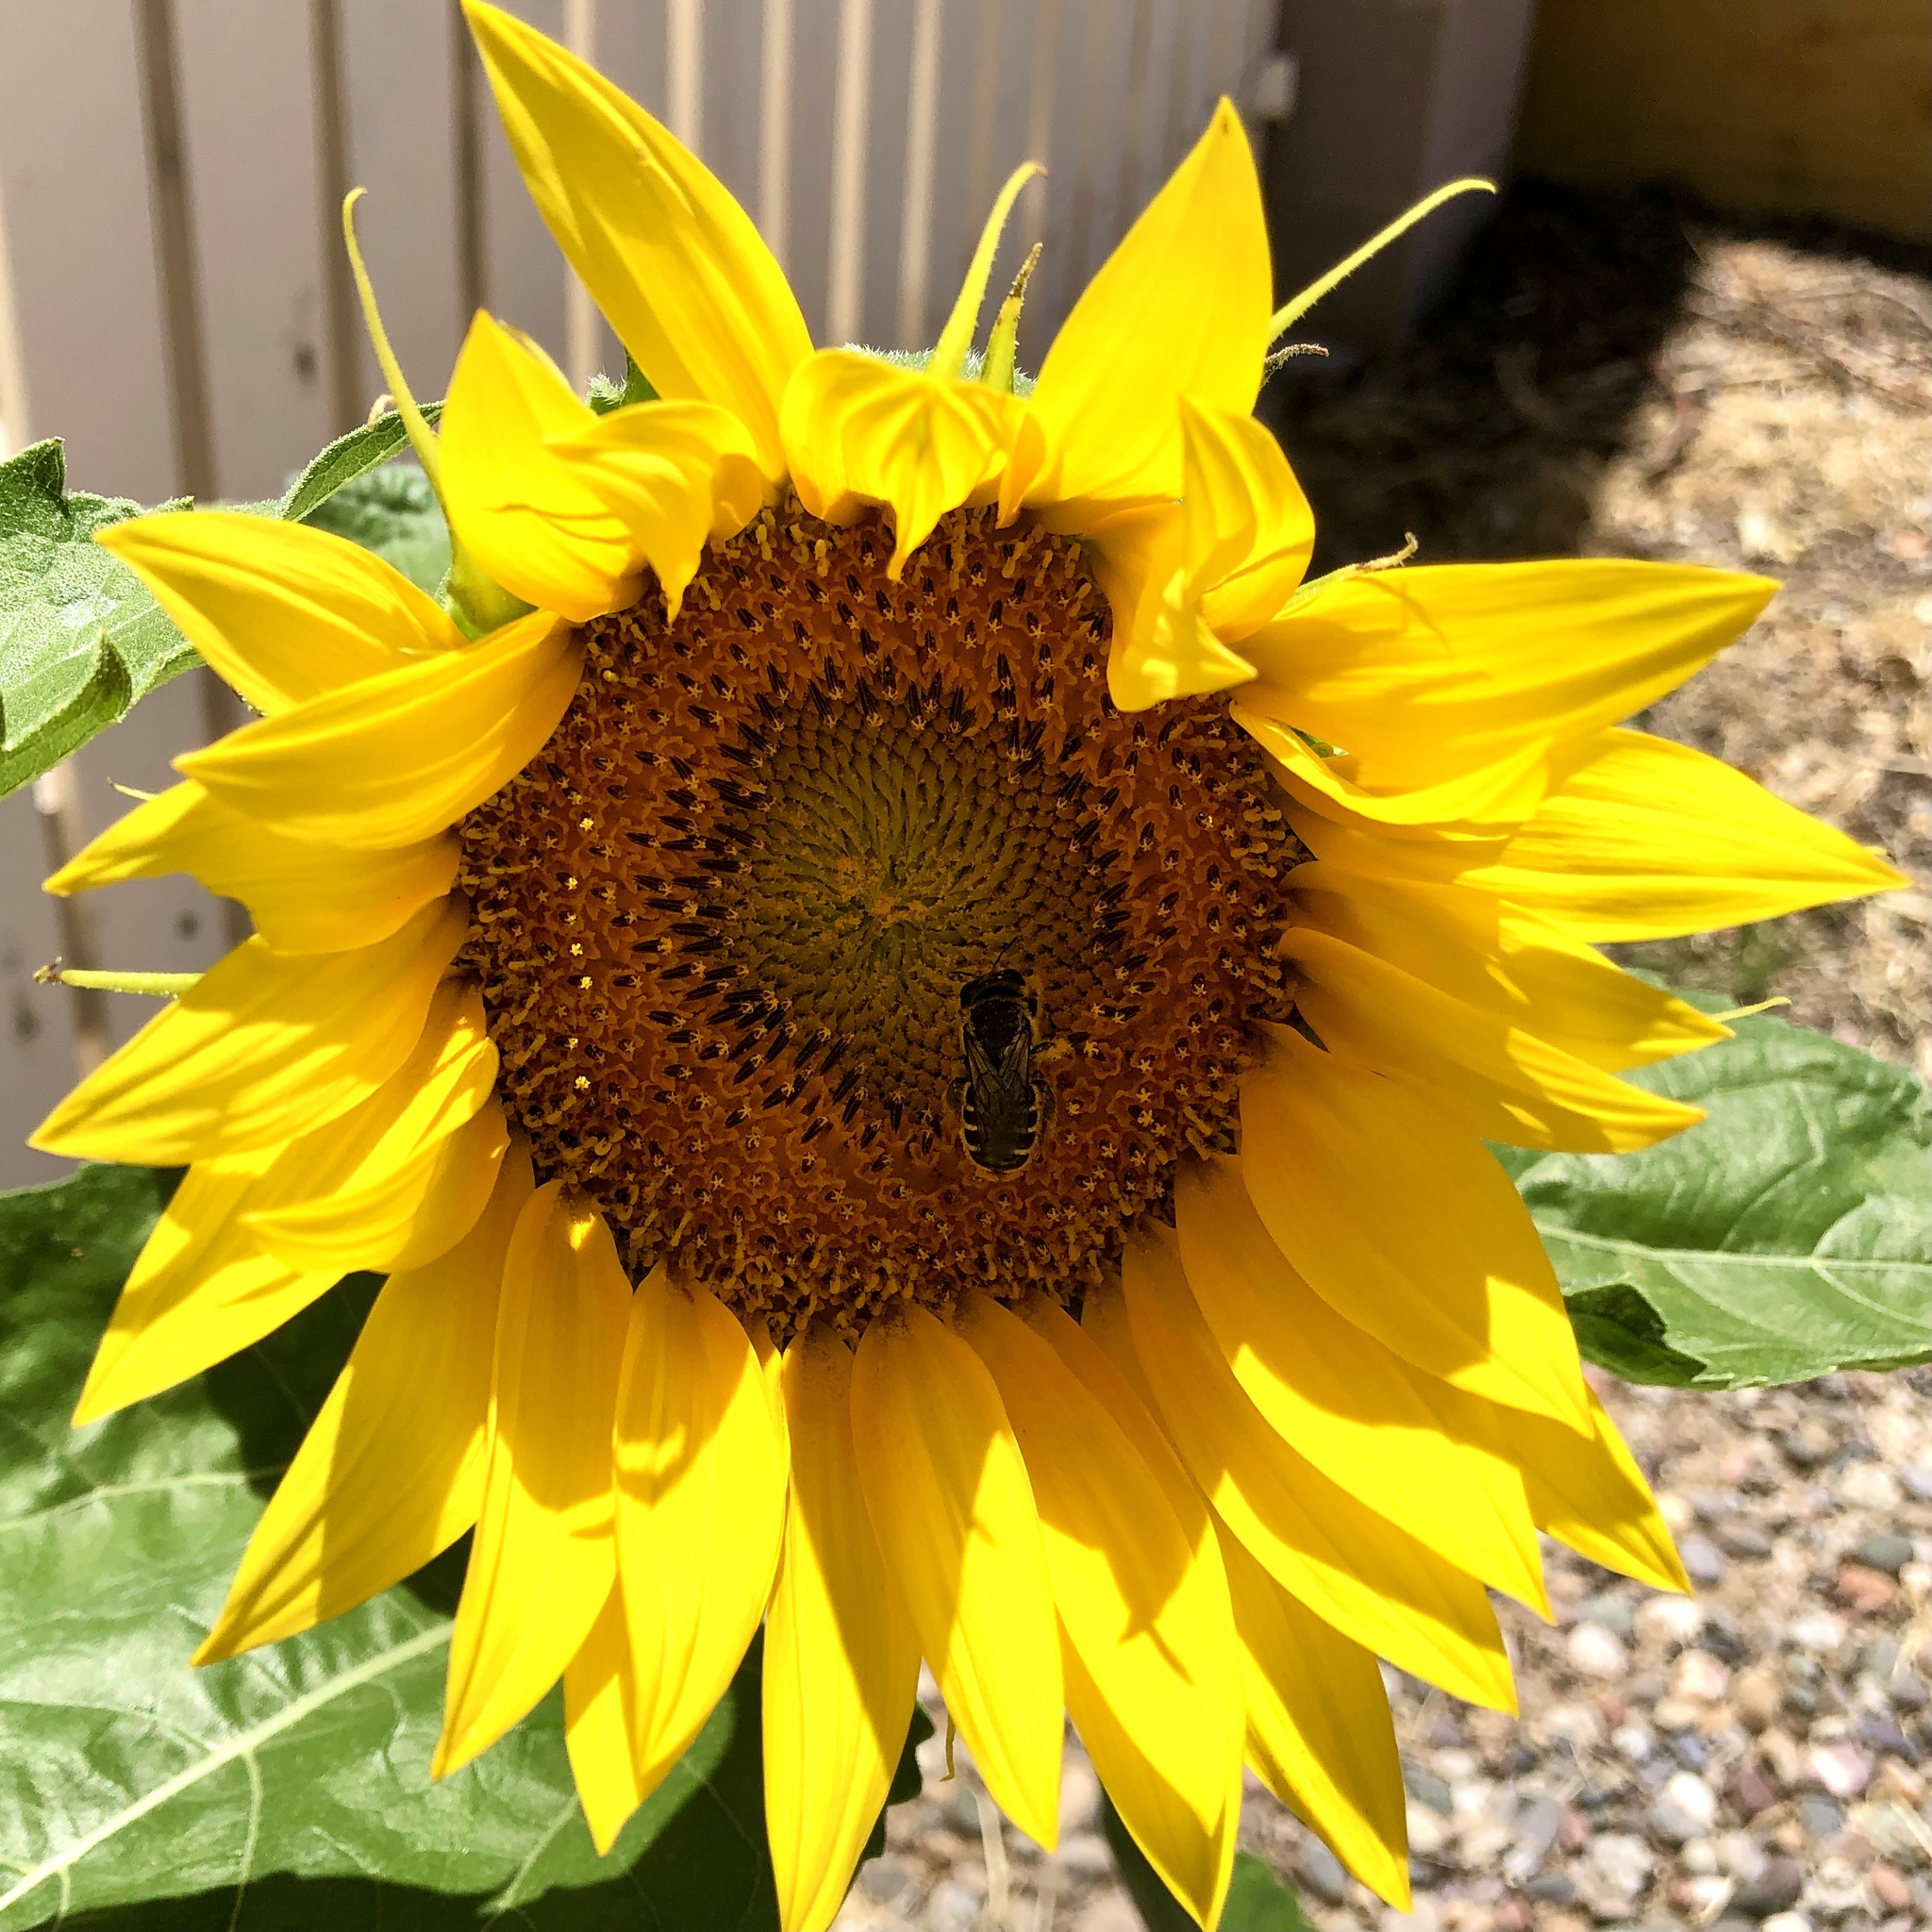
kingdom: Animalia
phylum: Arthropoda
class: Insecta
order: Hymenoptera
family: Megachilidae
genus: Lithurgopsis
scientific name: Lithurgopsis apicalis
